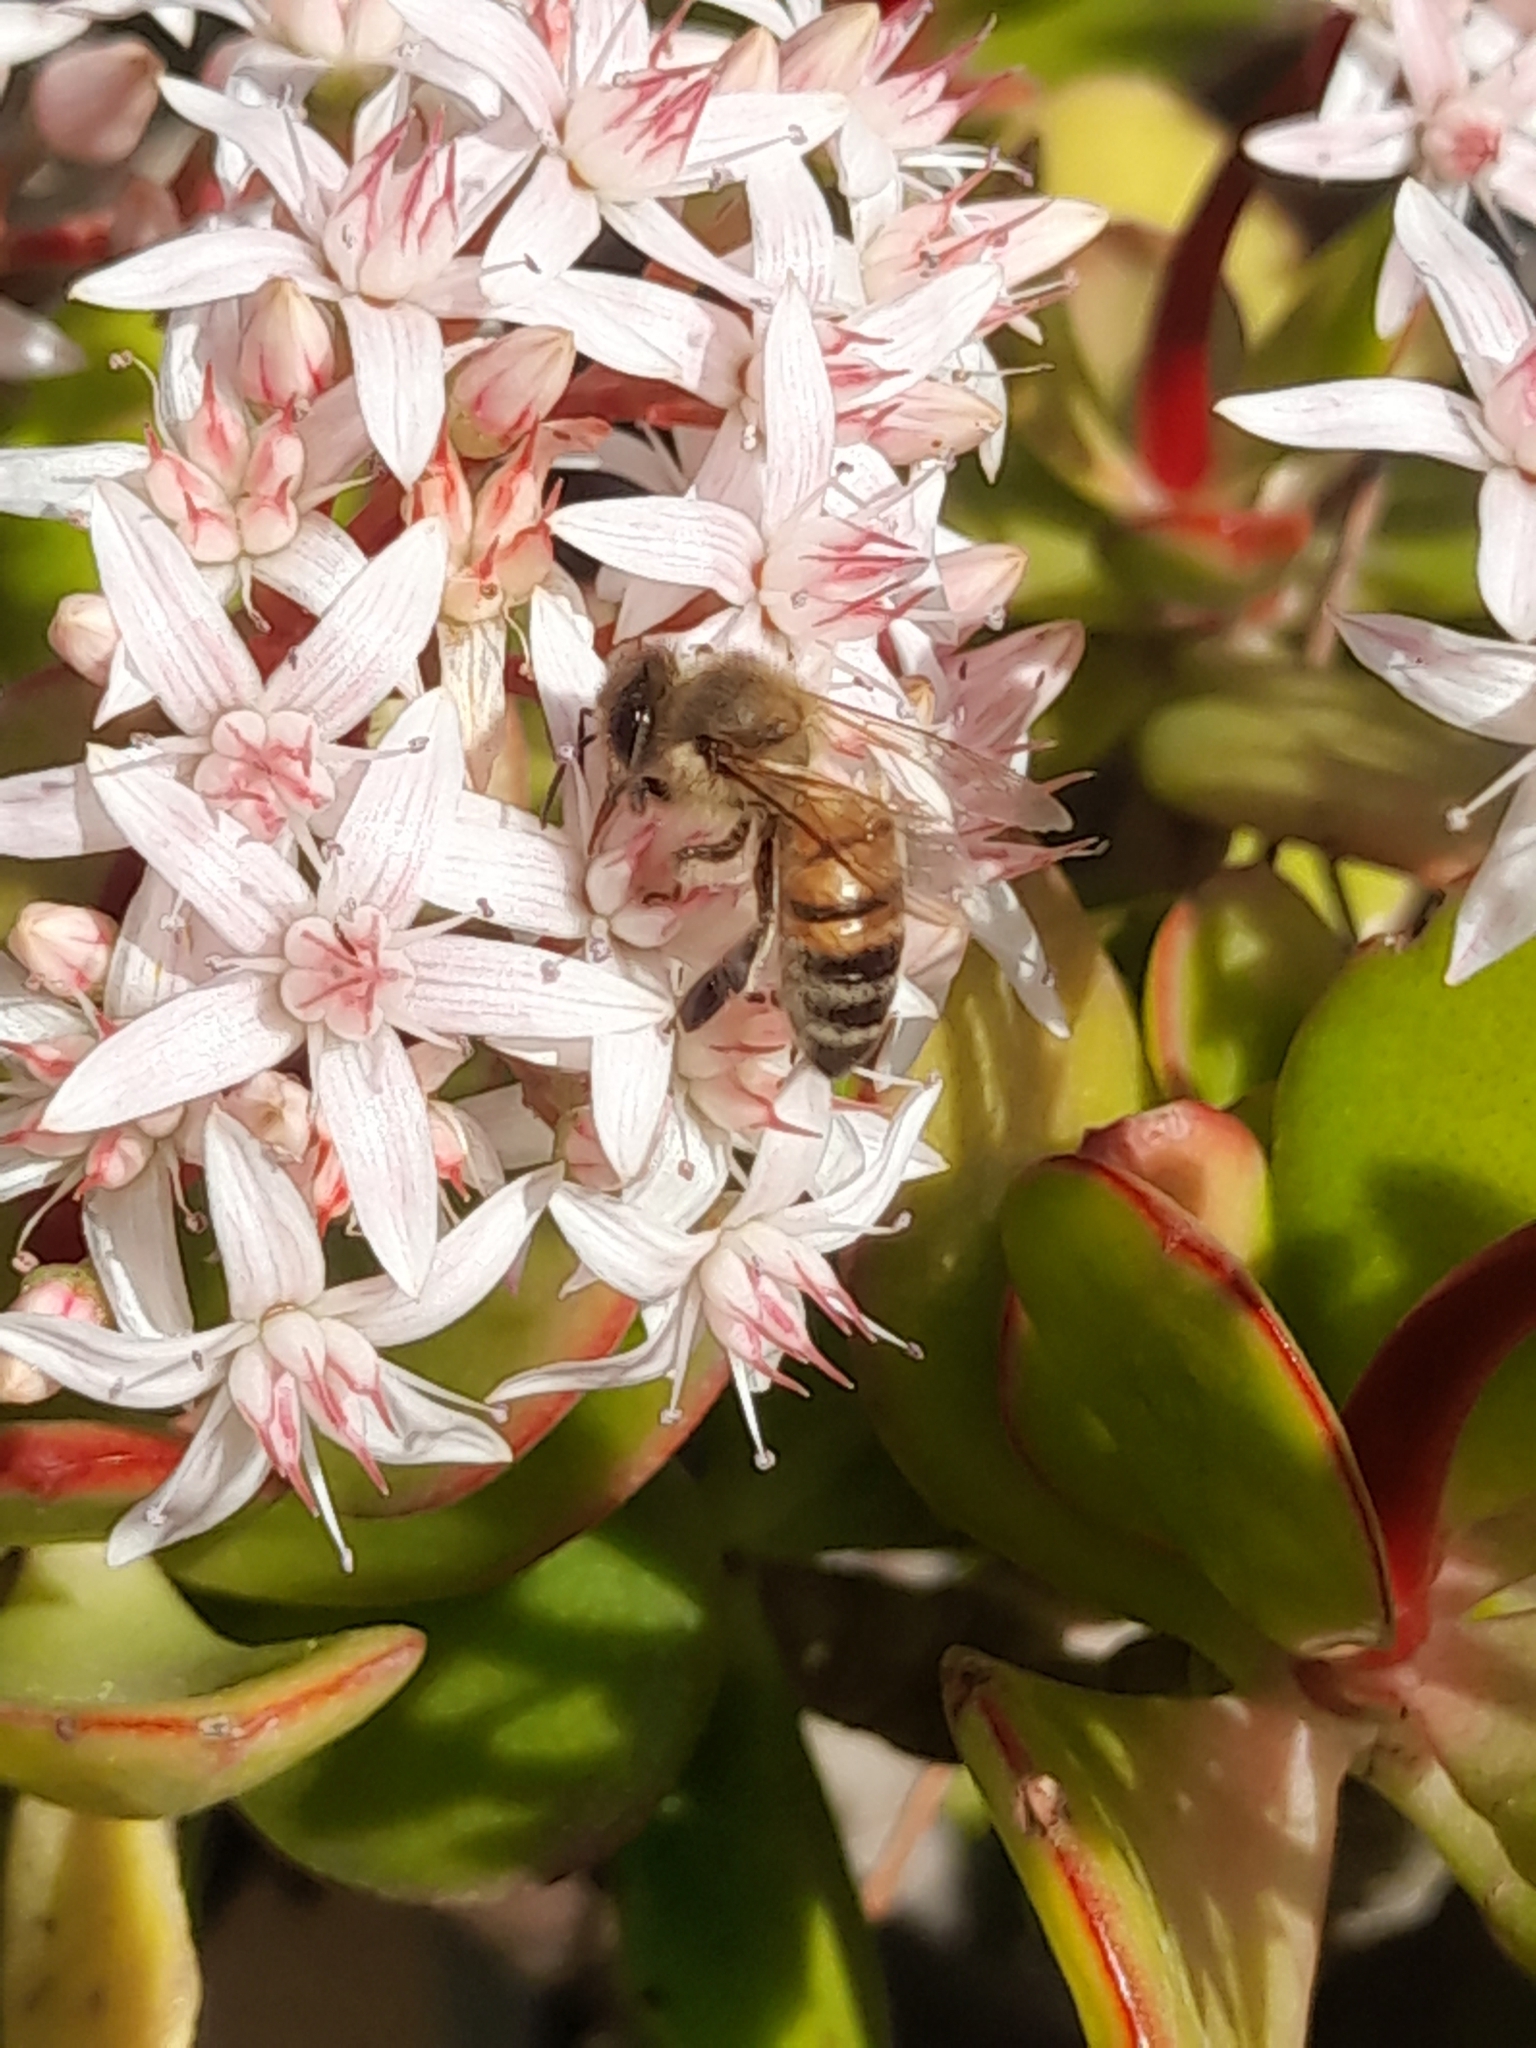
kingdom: Animalia
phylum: Arthropoda
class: Insecta
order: Hymenoptera
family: Apidae
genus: Apis
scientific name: Apis mellifera
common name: Honey bee
